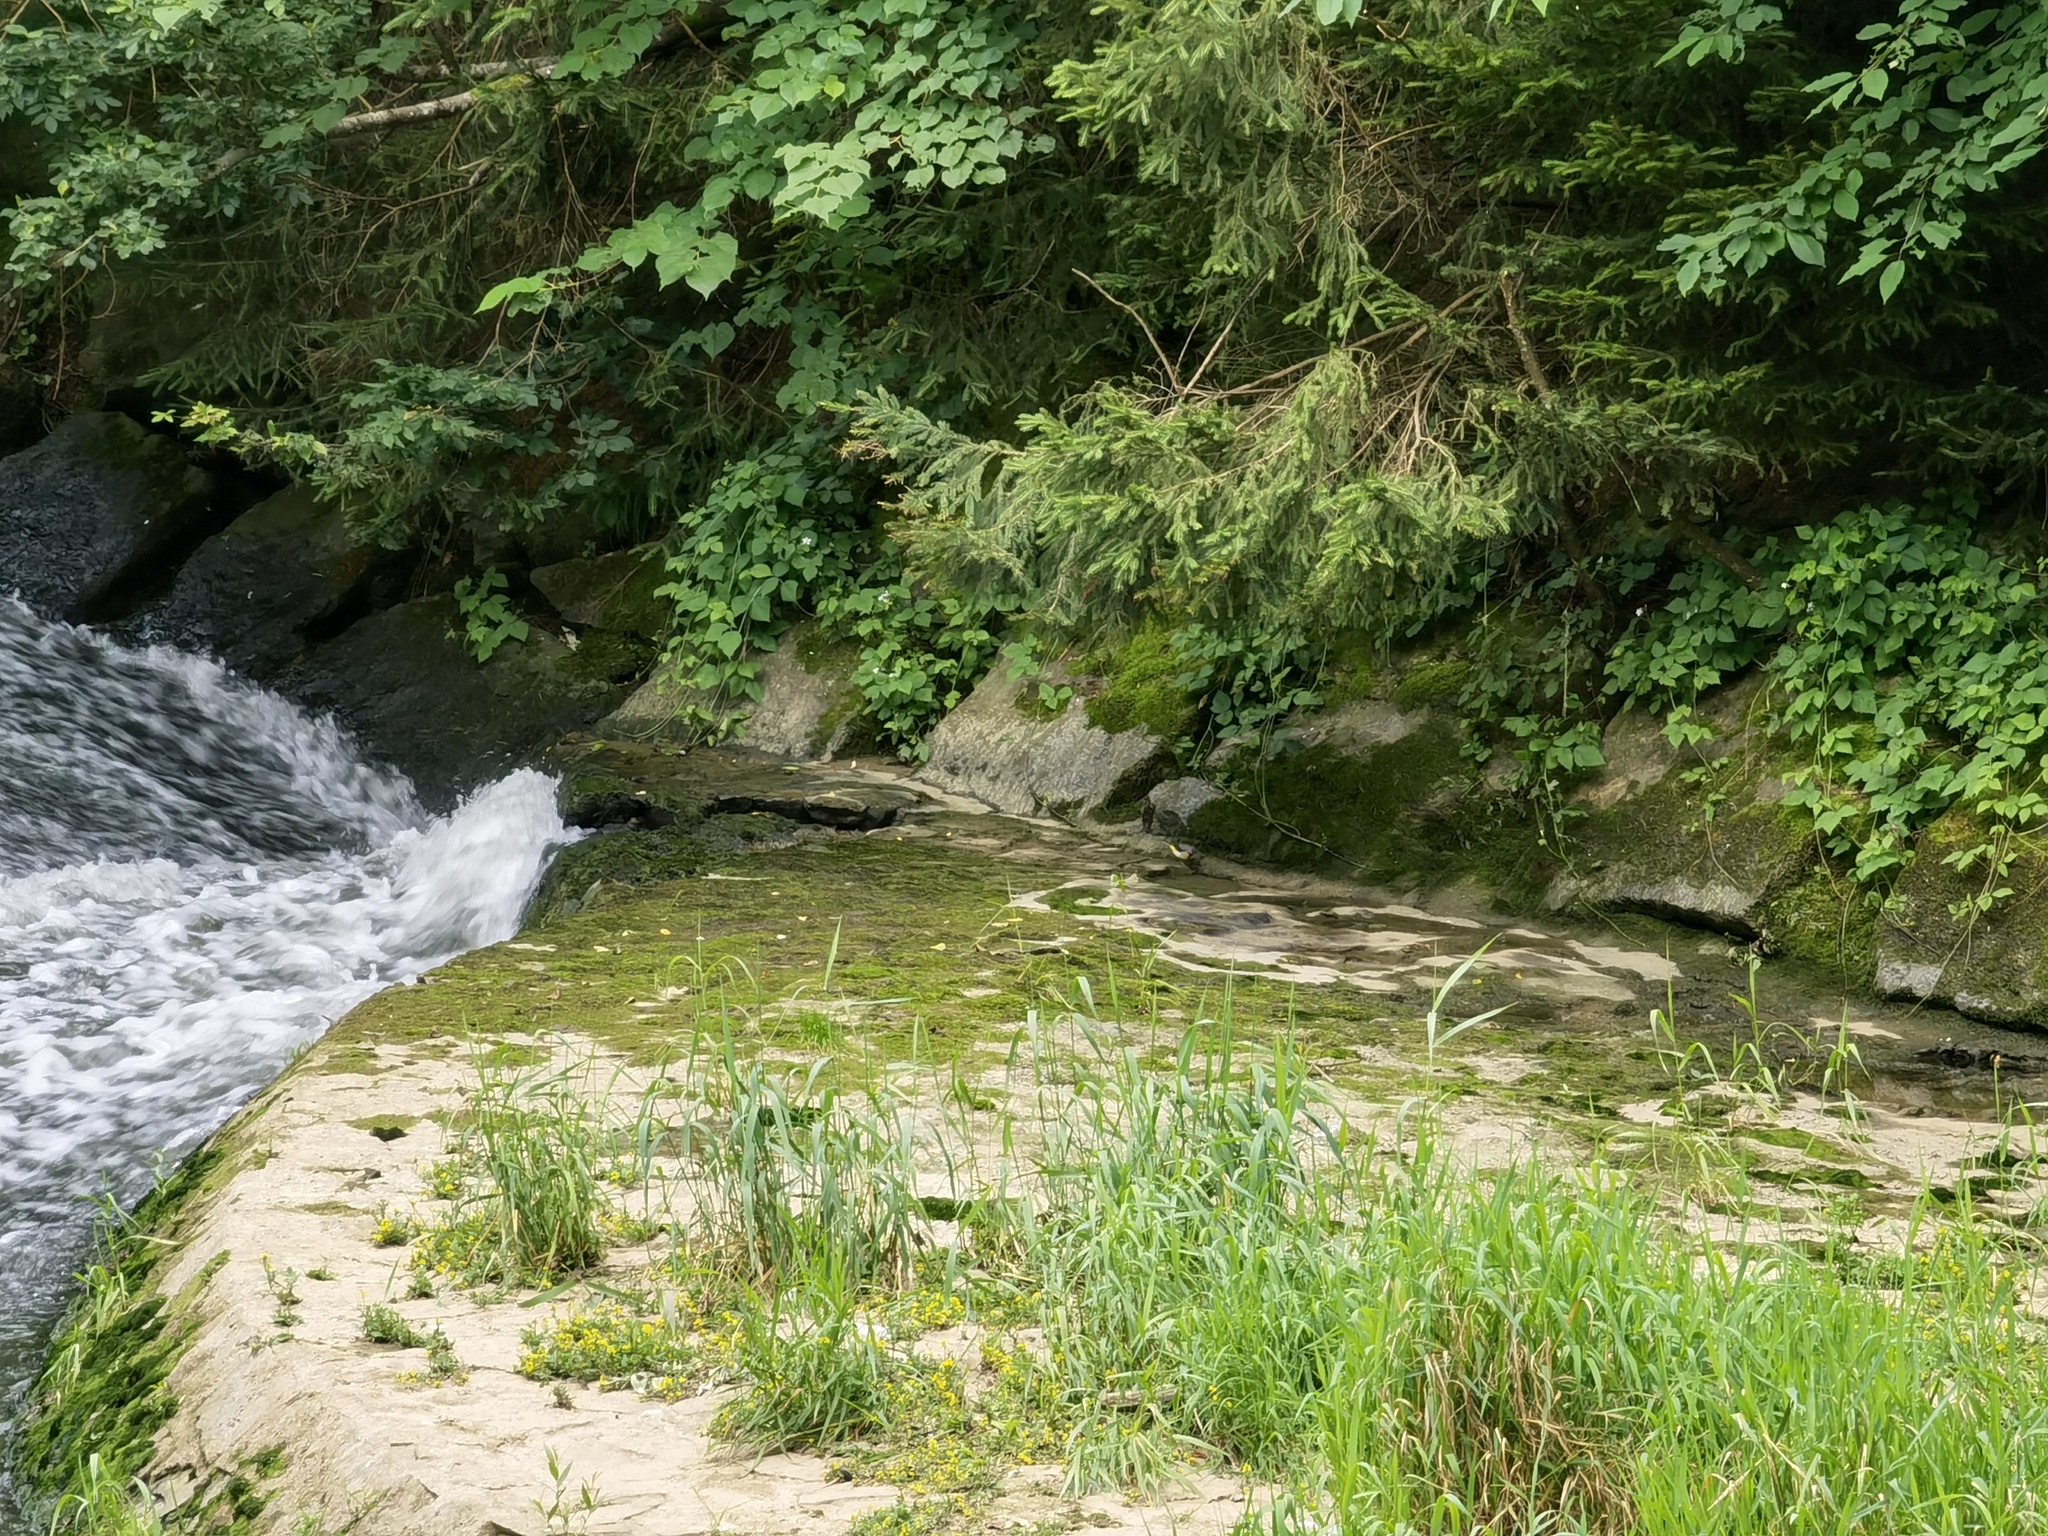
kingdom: Animalia
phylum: Chordata
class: Aves
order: Passeriformes
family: Motacillidae
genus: Motacilla
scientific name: Motacilla cinerea
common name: Grey wagtail
